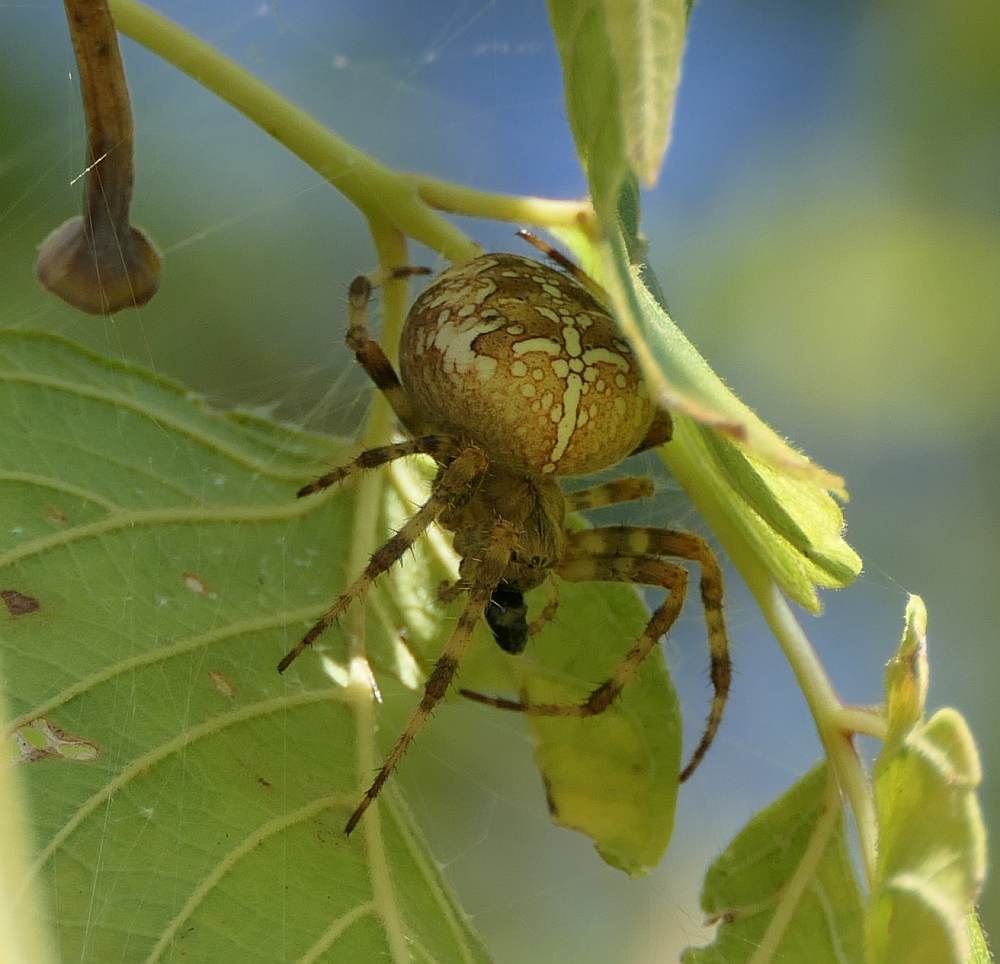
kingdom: Animalia
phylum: Arthropoda
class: Arachnida
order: Araneae
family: Araneidae
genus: Araneus
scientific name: Araneus diadematus
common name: Cross orbweaver
